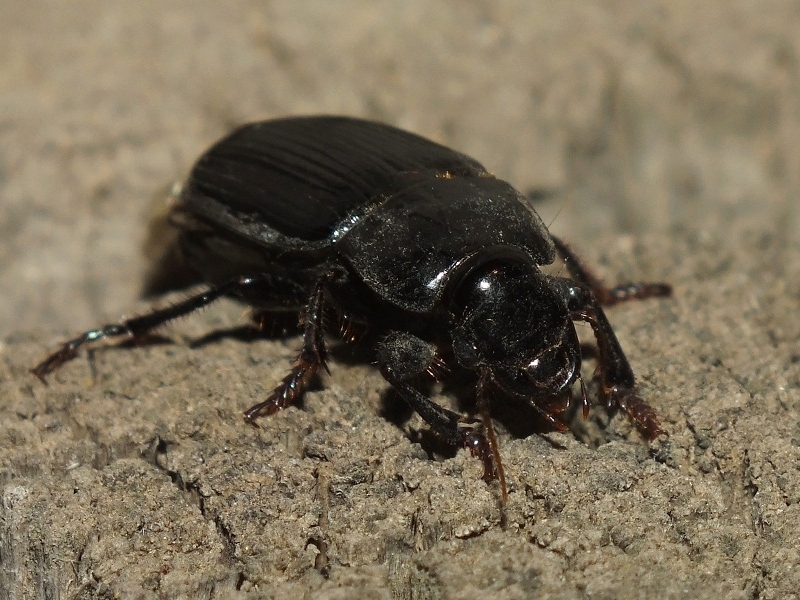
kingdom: Animalia
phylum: Arthropoda
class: Insecta
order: Coleoptera
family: Carabidae
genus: Harpalus
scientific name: Harpalus zabroides
